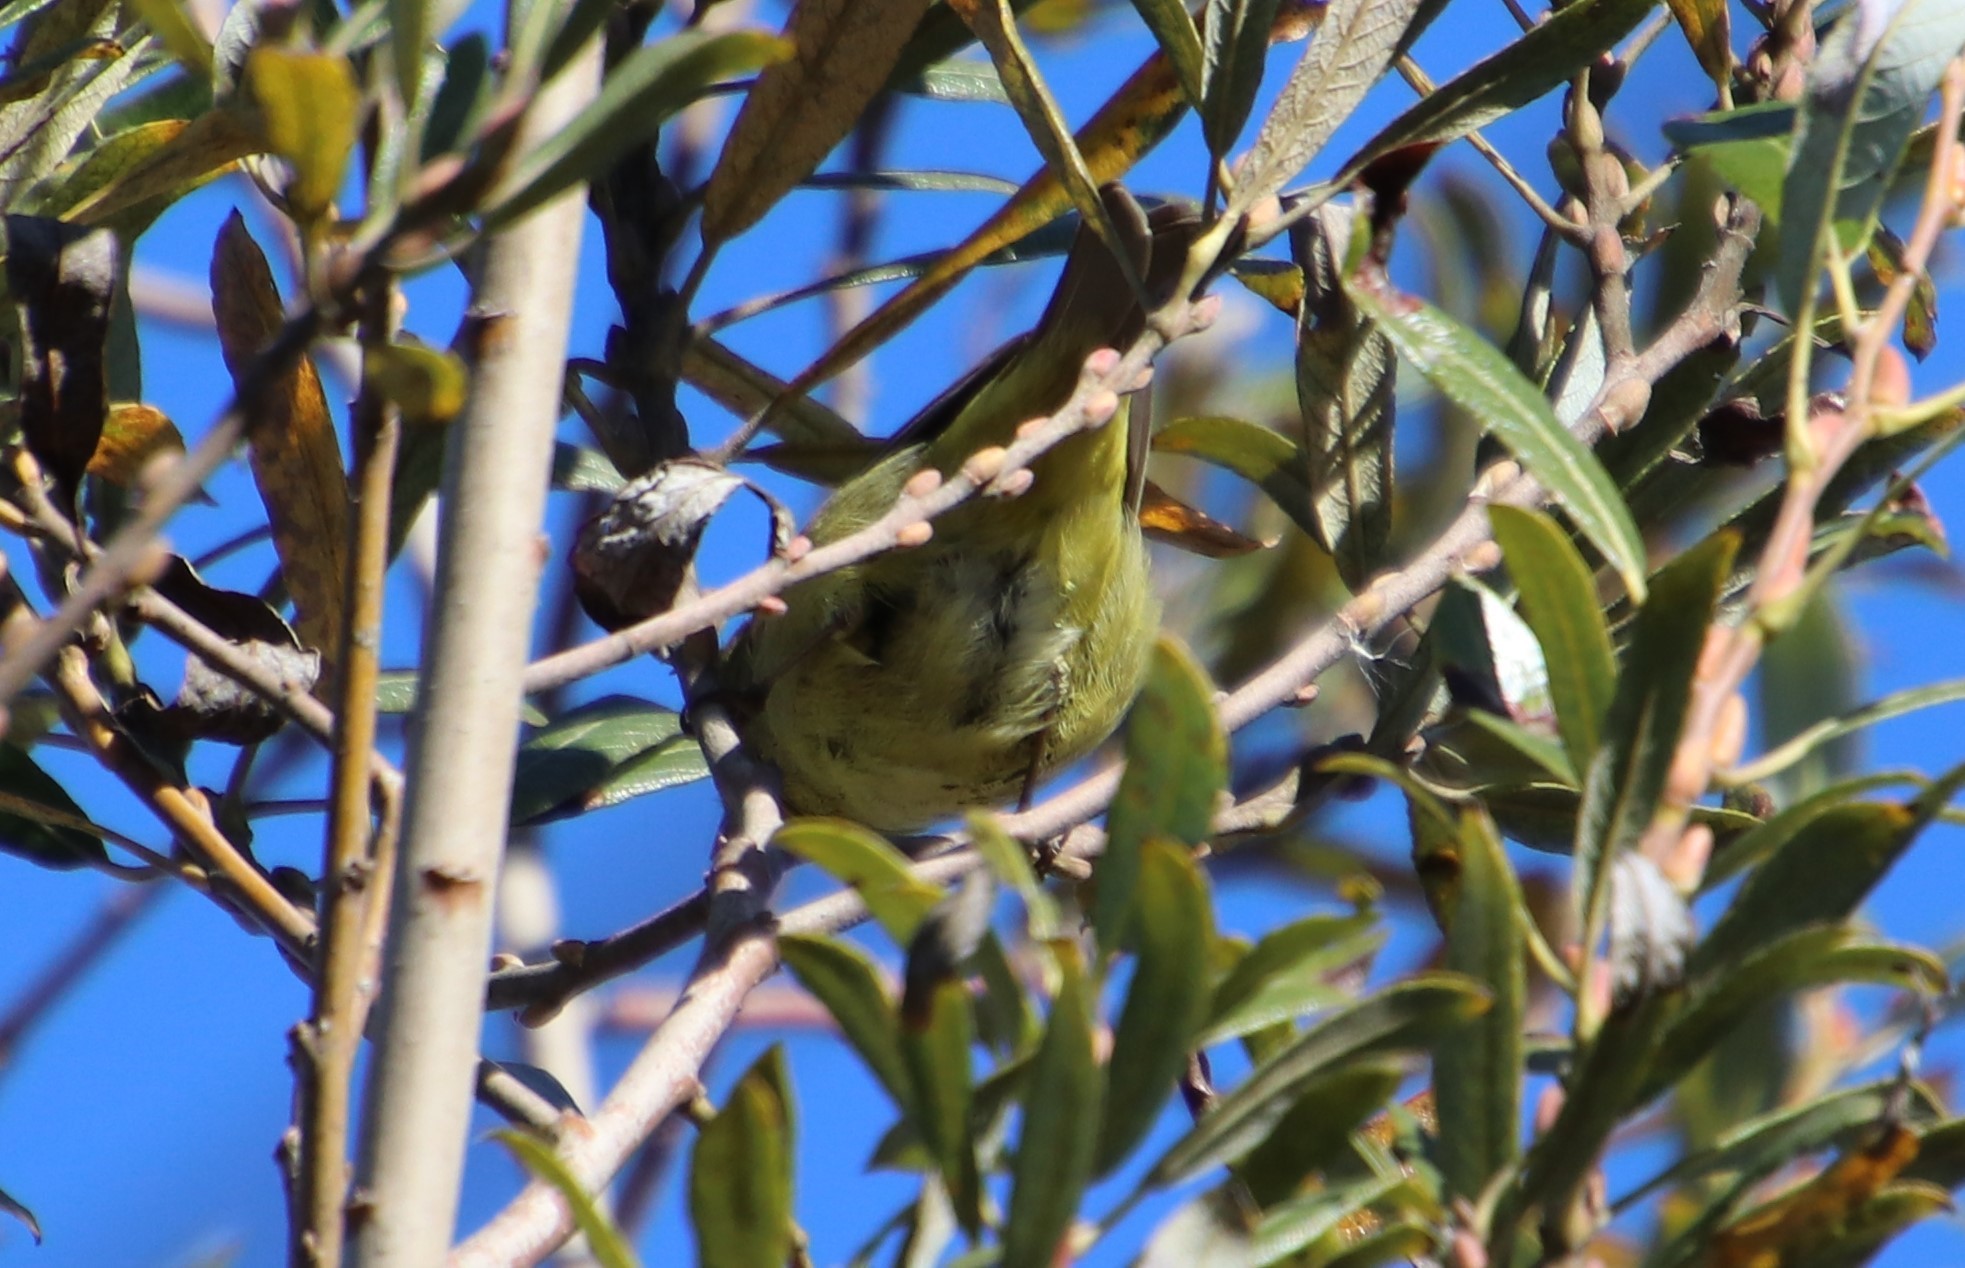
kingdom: Animalia
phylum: Chordata
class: Aves
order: Passeriformes
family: Parulidae
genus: Leiothlypis
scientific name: Leiothlypis celata
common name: Orange-crowned warbler
